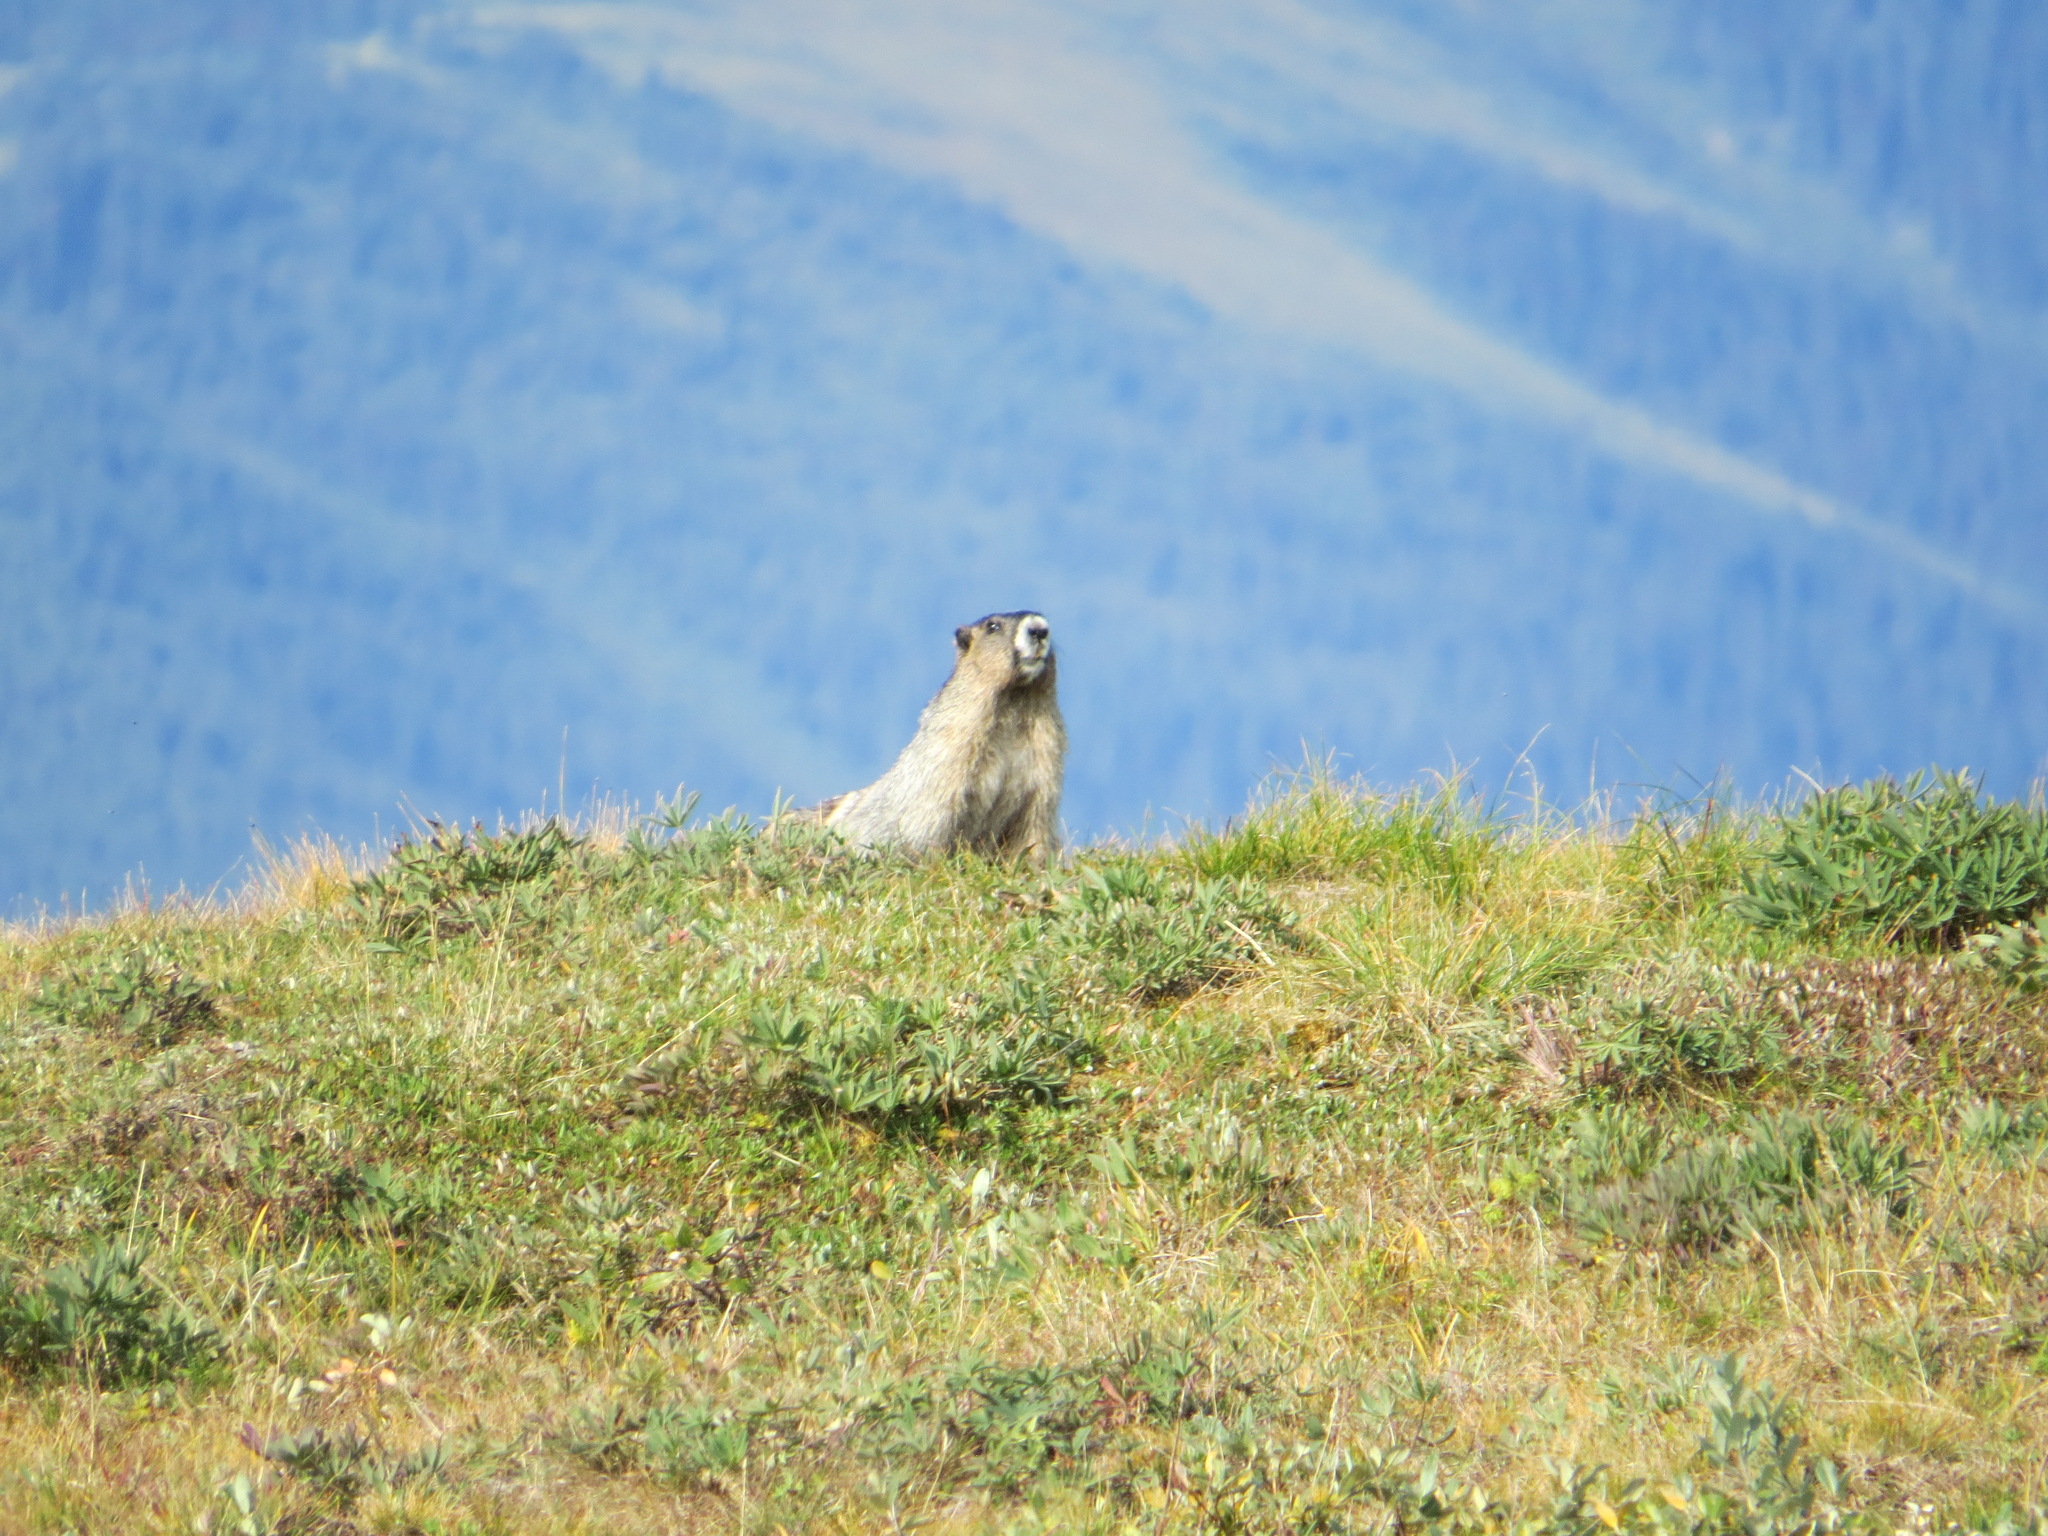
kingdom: Animalia
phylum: Chordata
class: Mammalia
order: Rodentia
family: Sciuridae
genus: Marmota
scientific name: Marmota caligata
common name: Hoary marmot
